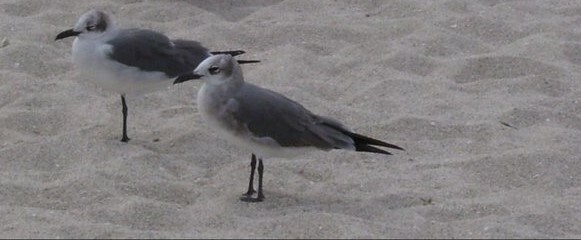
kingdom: Animalia
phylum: Chordata
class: Aves
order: Charadriiformes
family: Laridae
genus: Leucophaeus
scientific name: Leucophaeus atricilla
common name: Laughing gull
